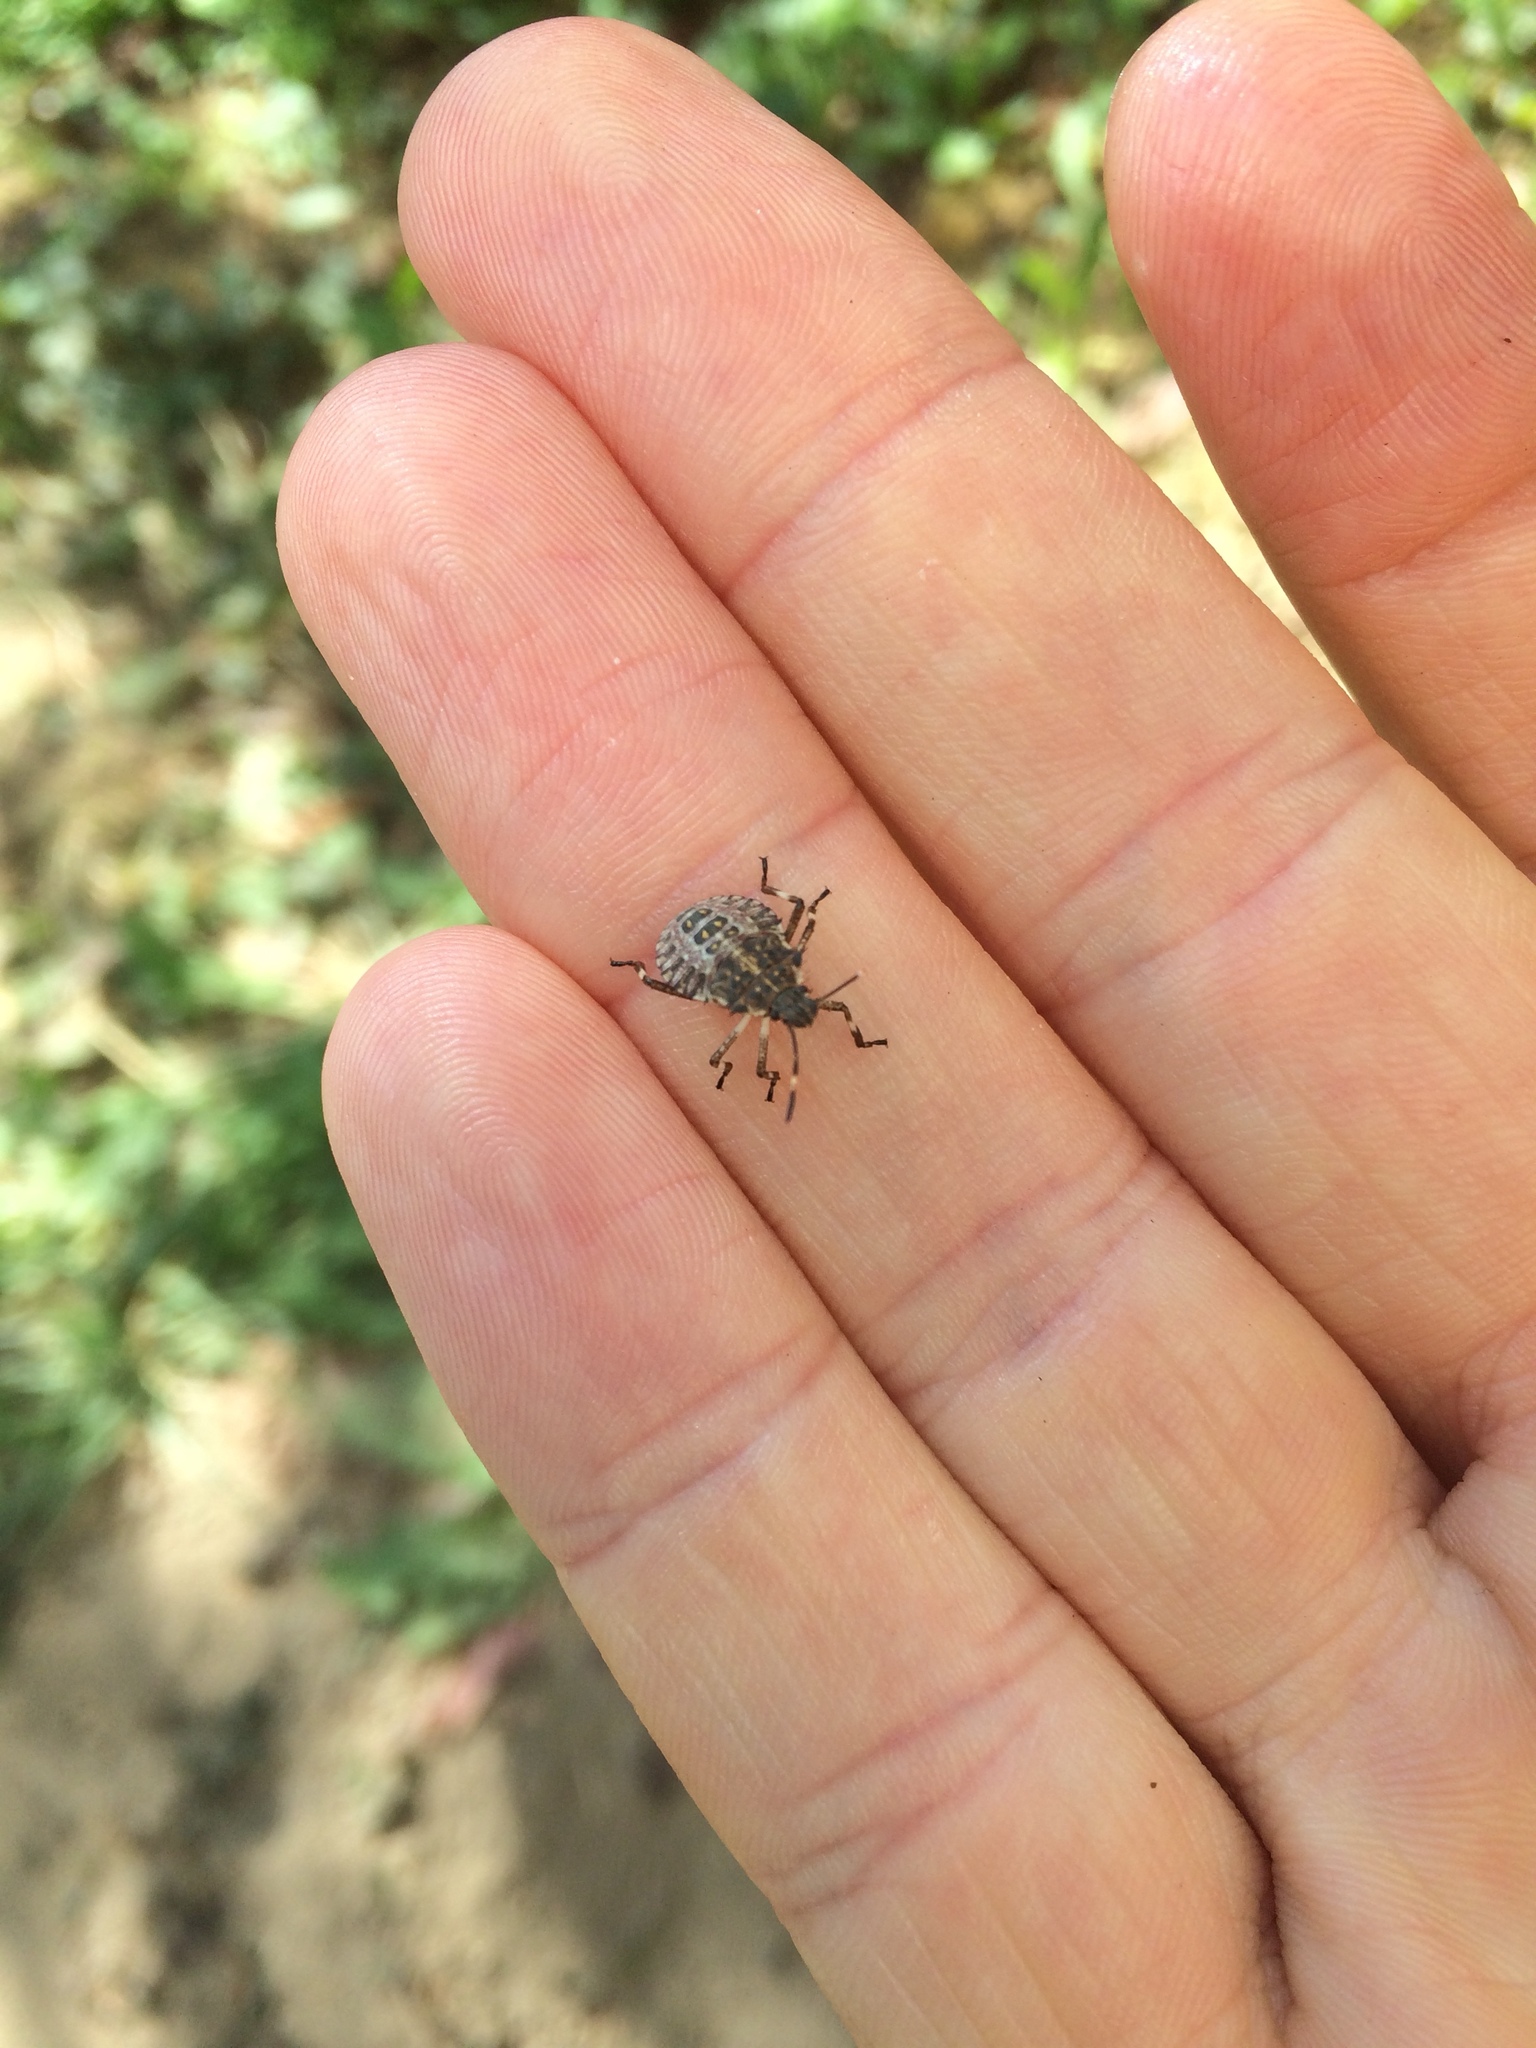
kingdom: Animalia
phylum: Arthropoda
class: Insecta
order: Hemiptera
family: Pentatomidae
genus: Halyomorpha
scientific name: Halyomorpha halys
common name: Brown marmorated stink bug
